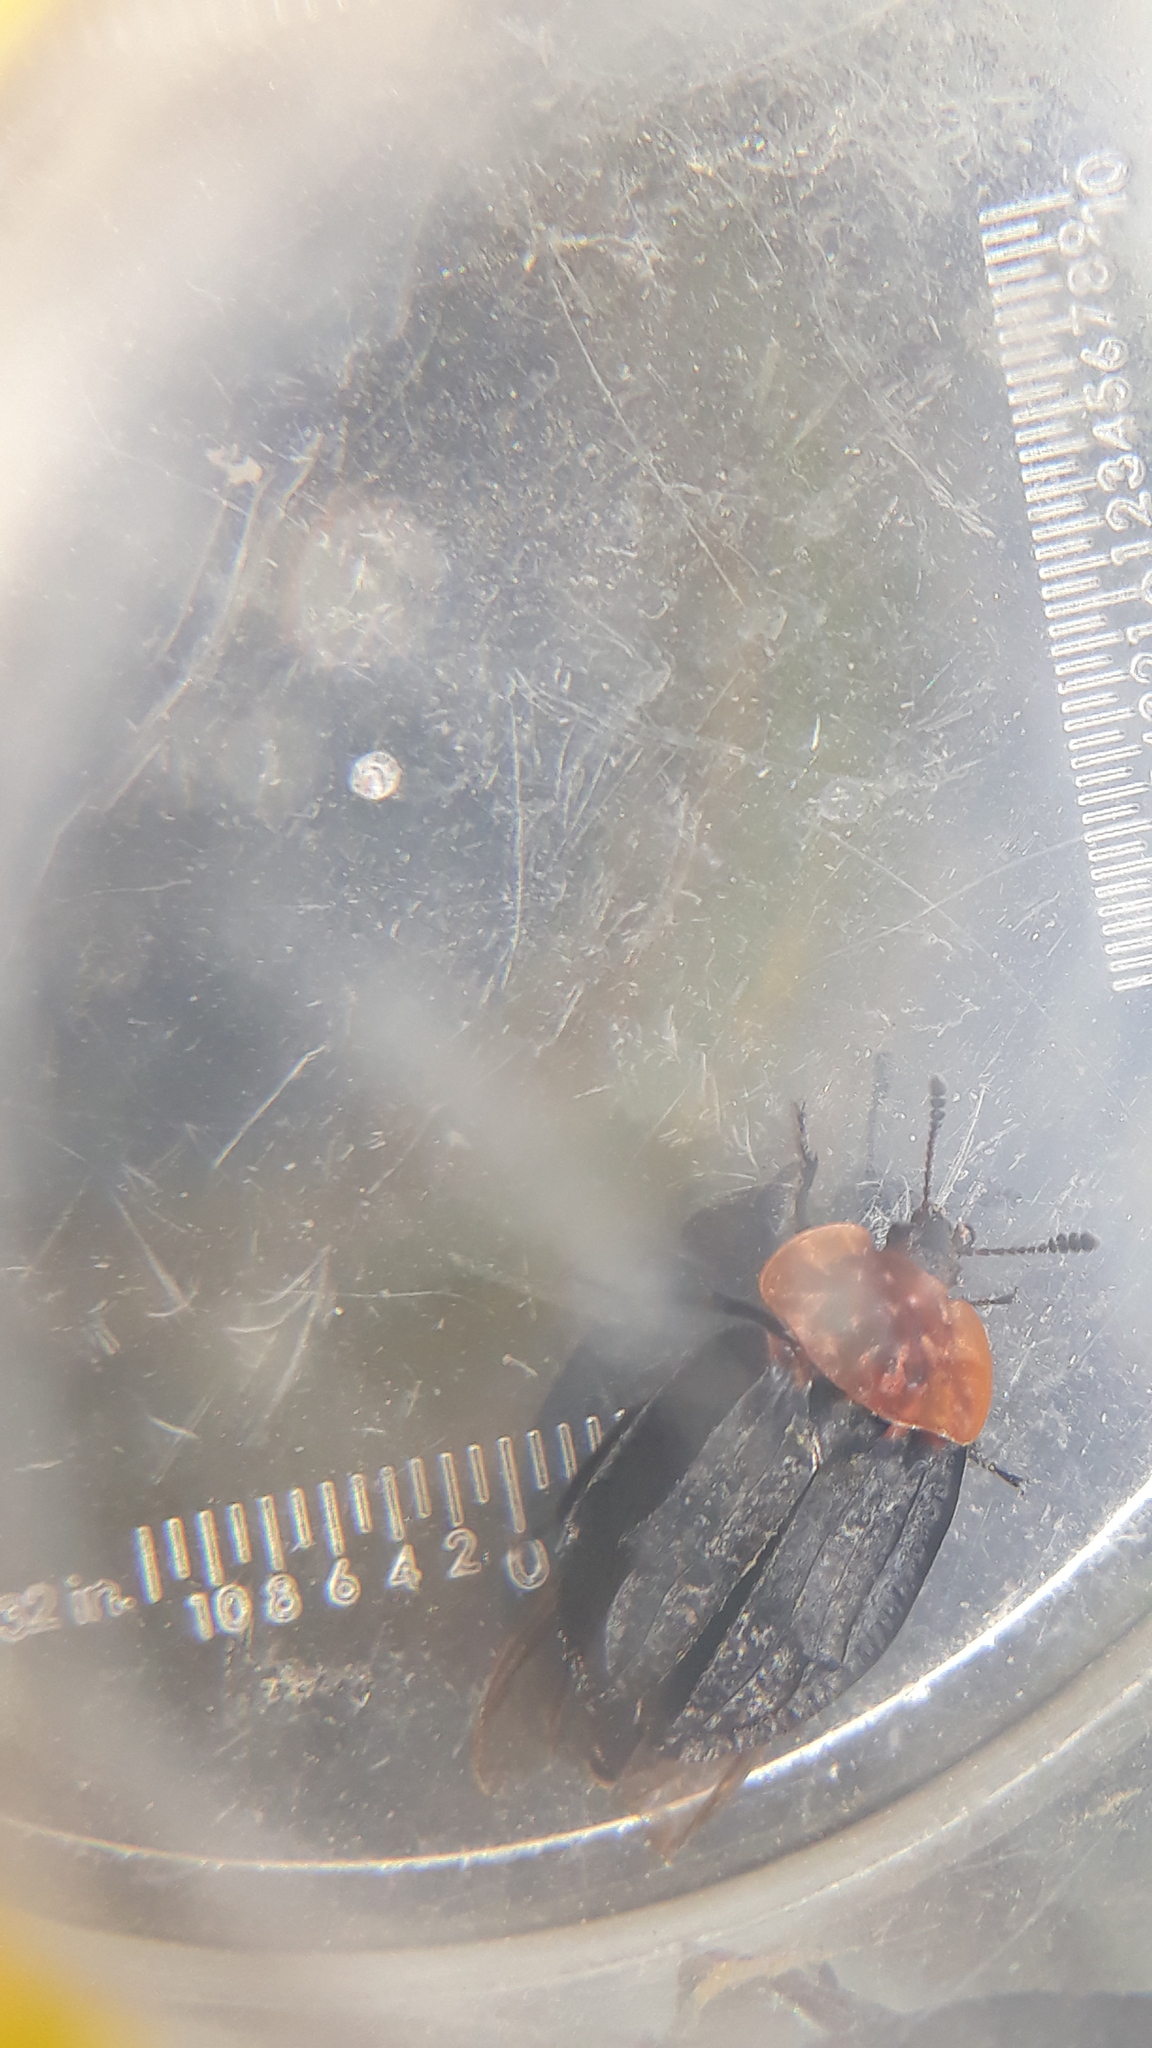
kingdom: Animalia
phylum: Arthropoda
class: Insecta
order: Coleoptera
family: Staphylinidae
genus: Oiceoptoma
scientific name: Oiceoptoma thoracicum
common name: Red-breasted carrion beetle
